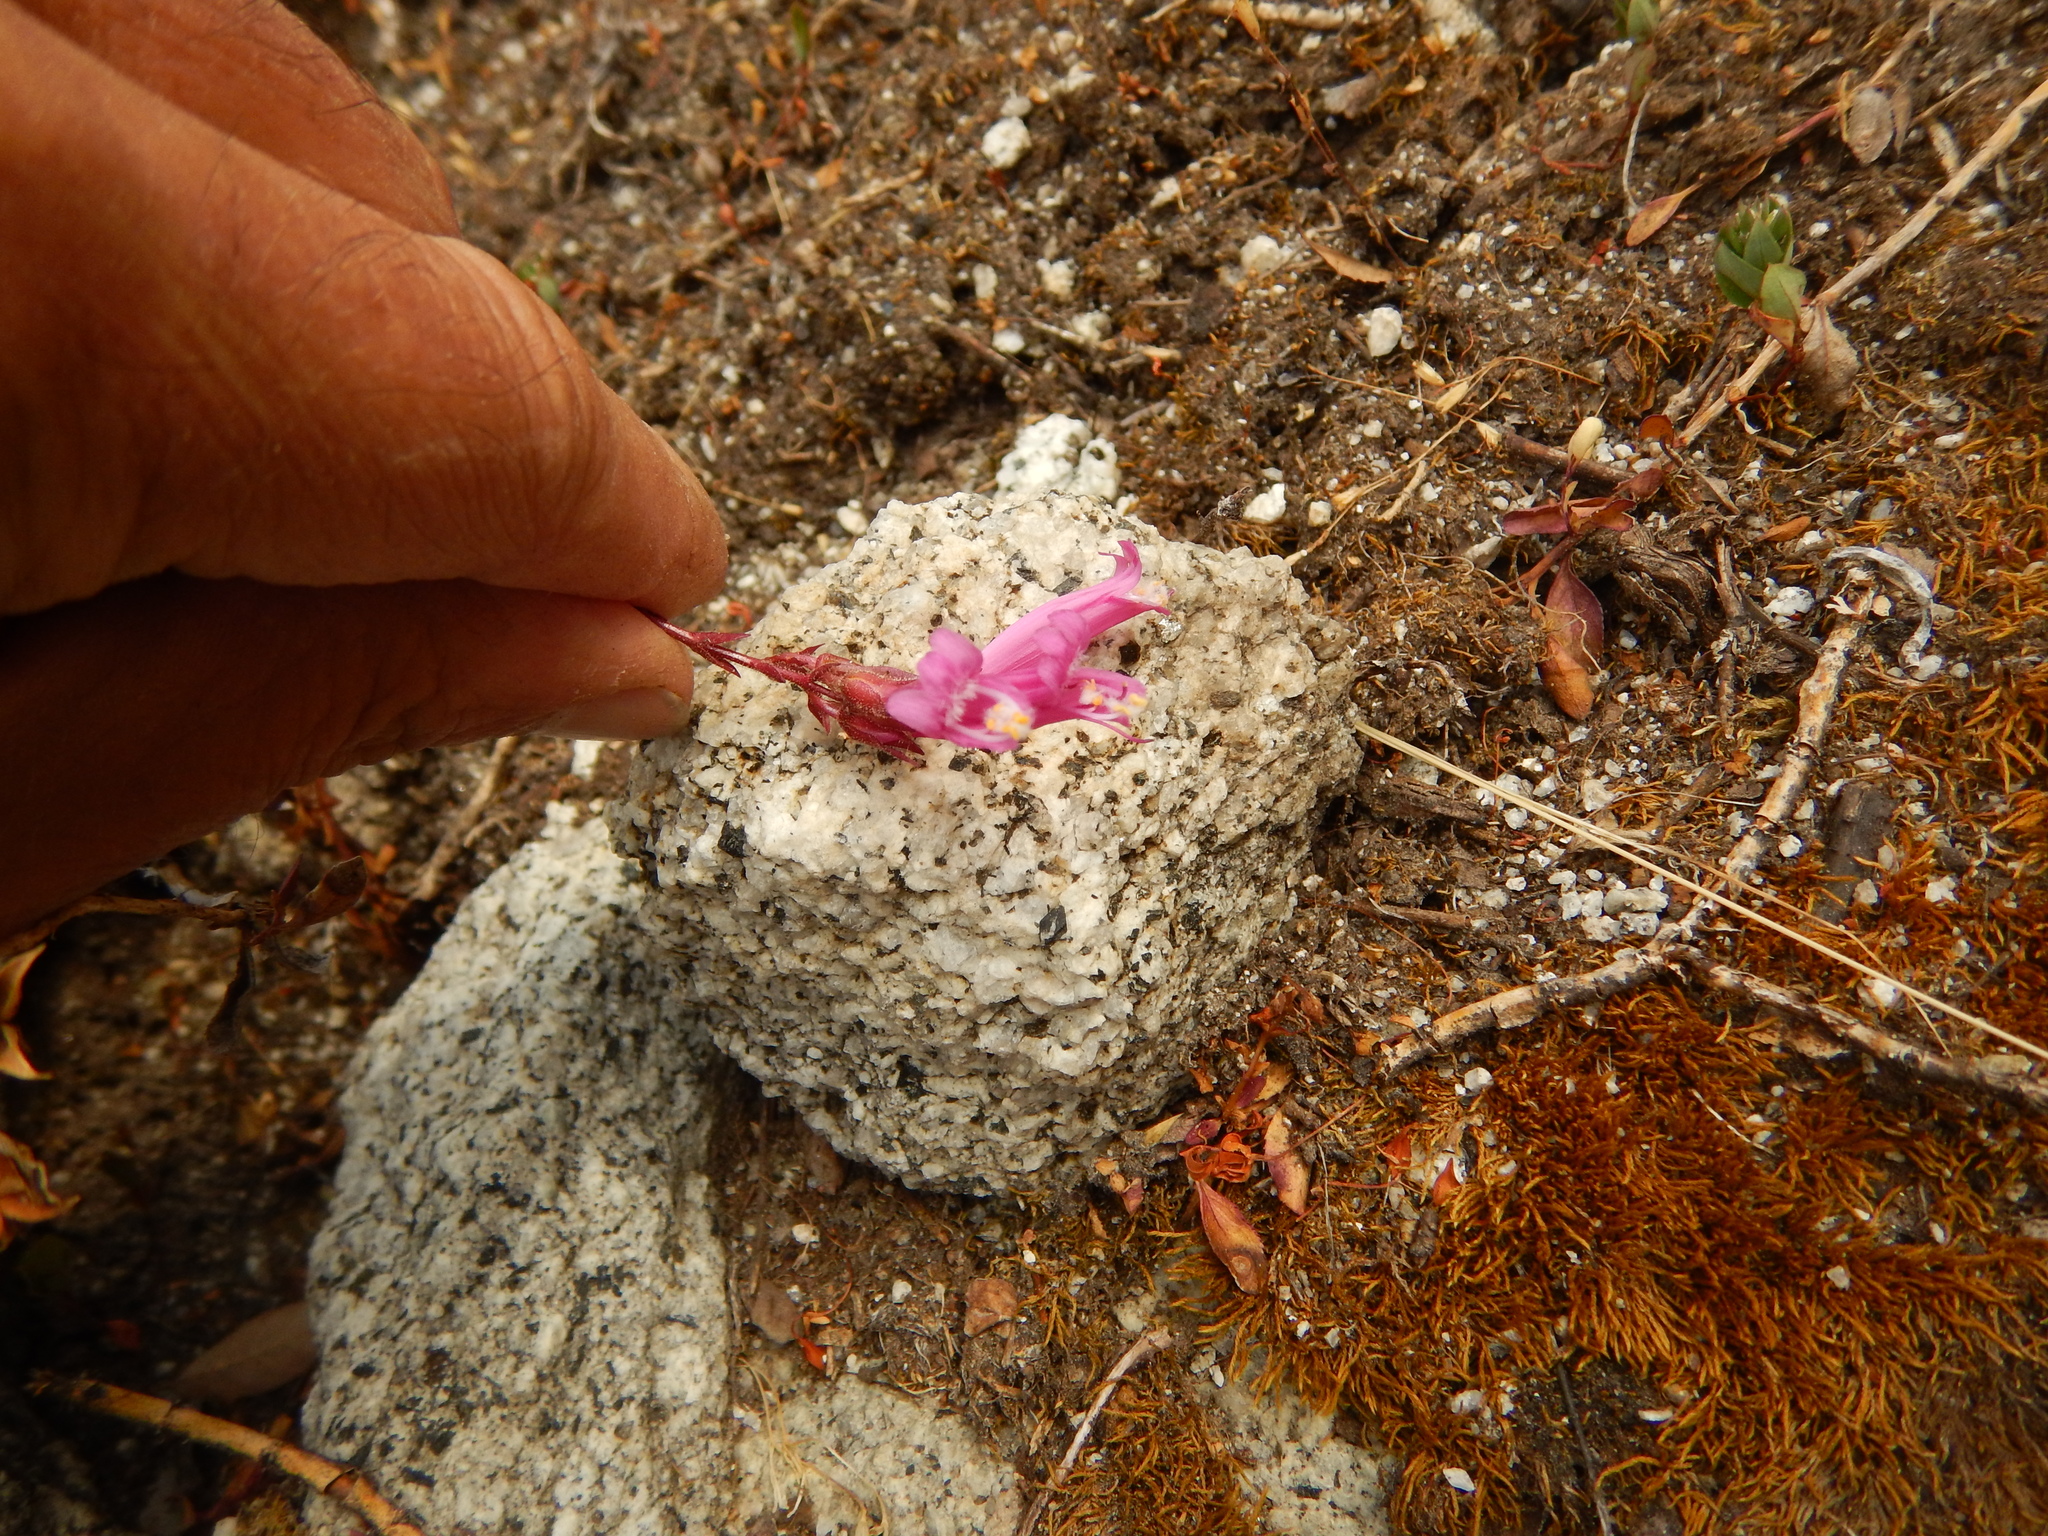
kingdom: Plantae
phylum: Tracheophyta
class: Magnoliopsida
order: Lamiales
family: Plantaginaceae
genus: Penstemon
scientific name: Penstemon newberryi
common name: Mountain-pride
